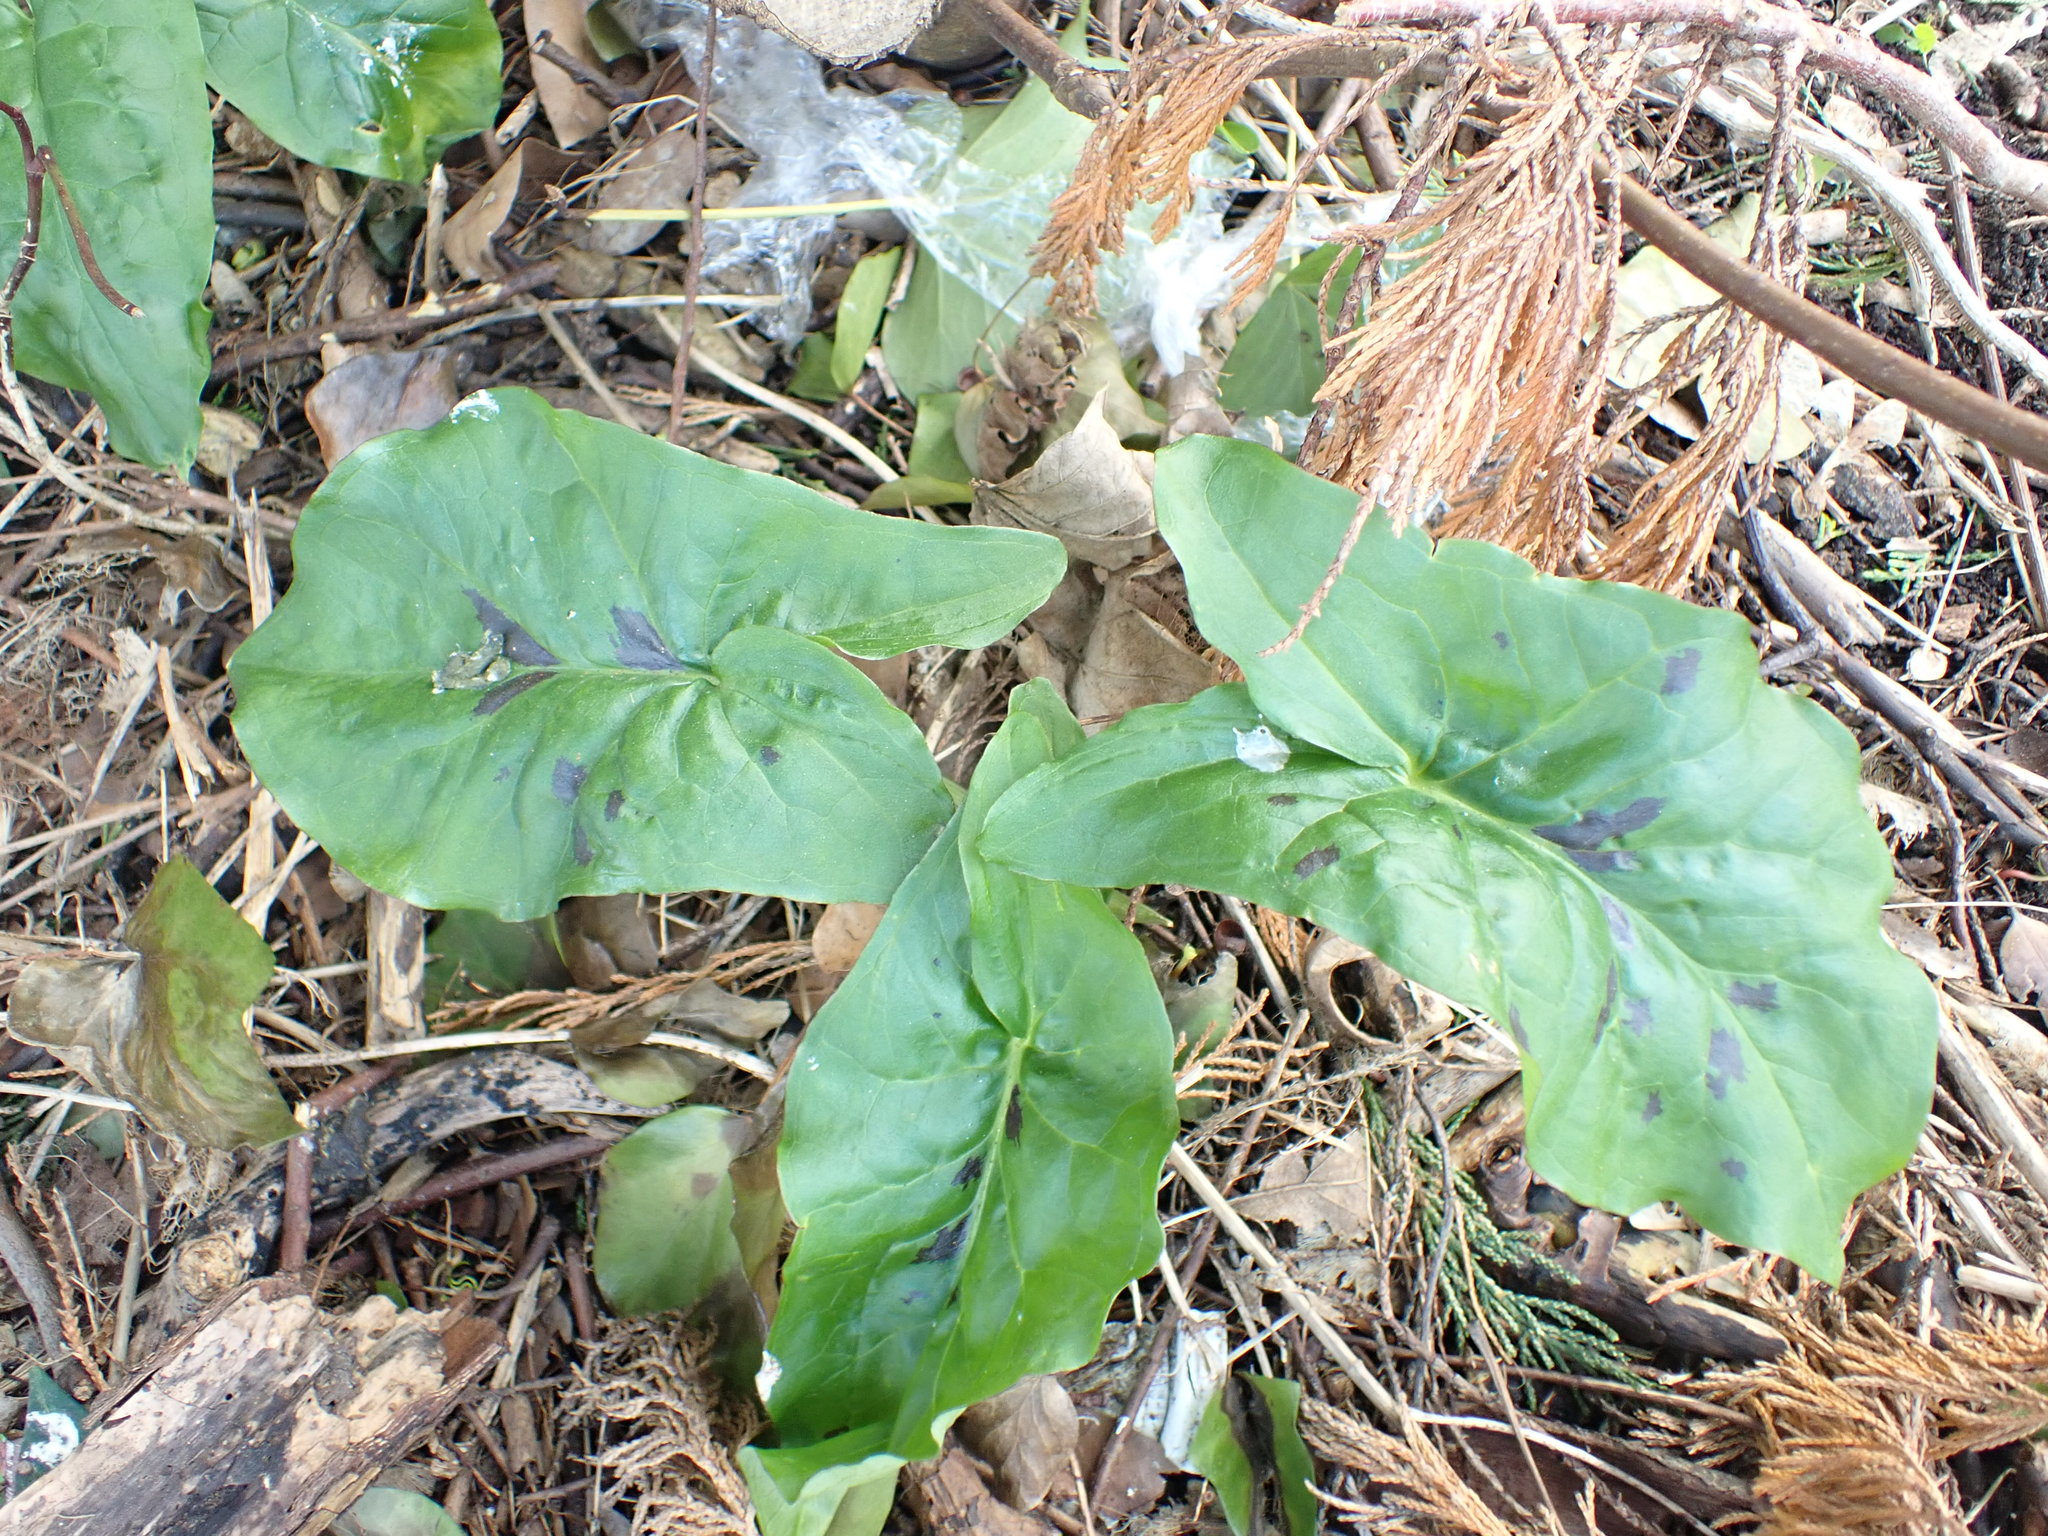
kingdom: Plantae
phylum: Tracheophyta
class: Liliopsida
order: Alismatales
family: Araceae
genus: Arum
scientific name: Arum maculatum
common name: Lords-and-ladies
